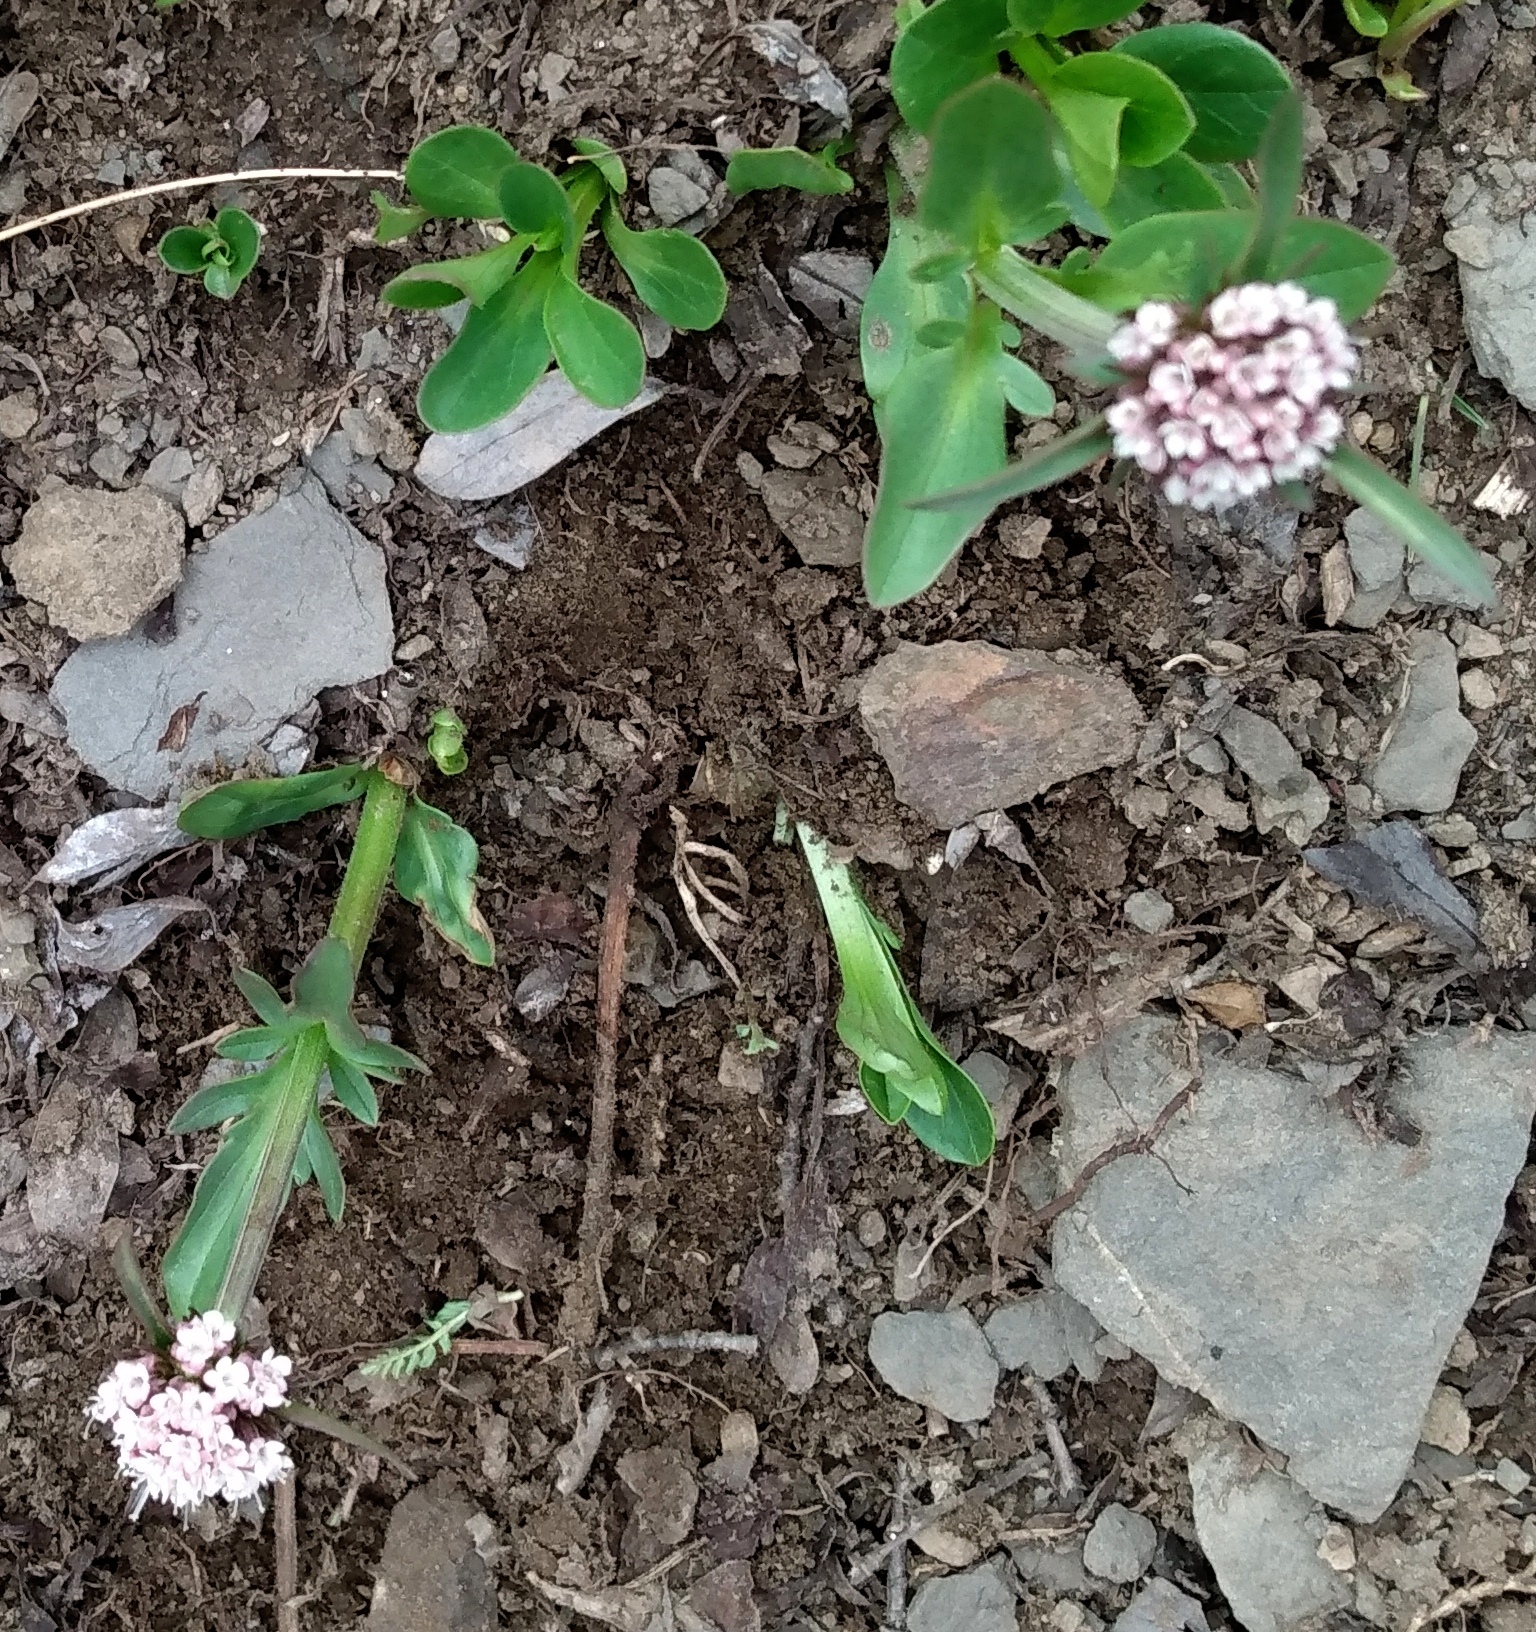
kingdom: Plantae
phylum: Tracheophyta
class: Magnoliopsida
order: Dipsacales
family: Caprifoliaceae
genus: Valeriana
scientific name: Valeriana acutiloba
